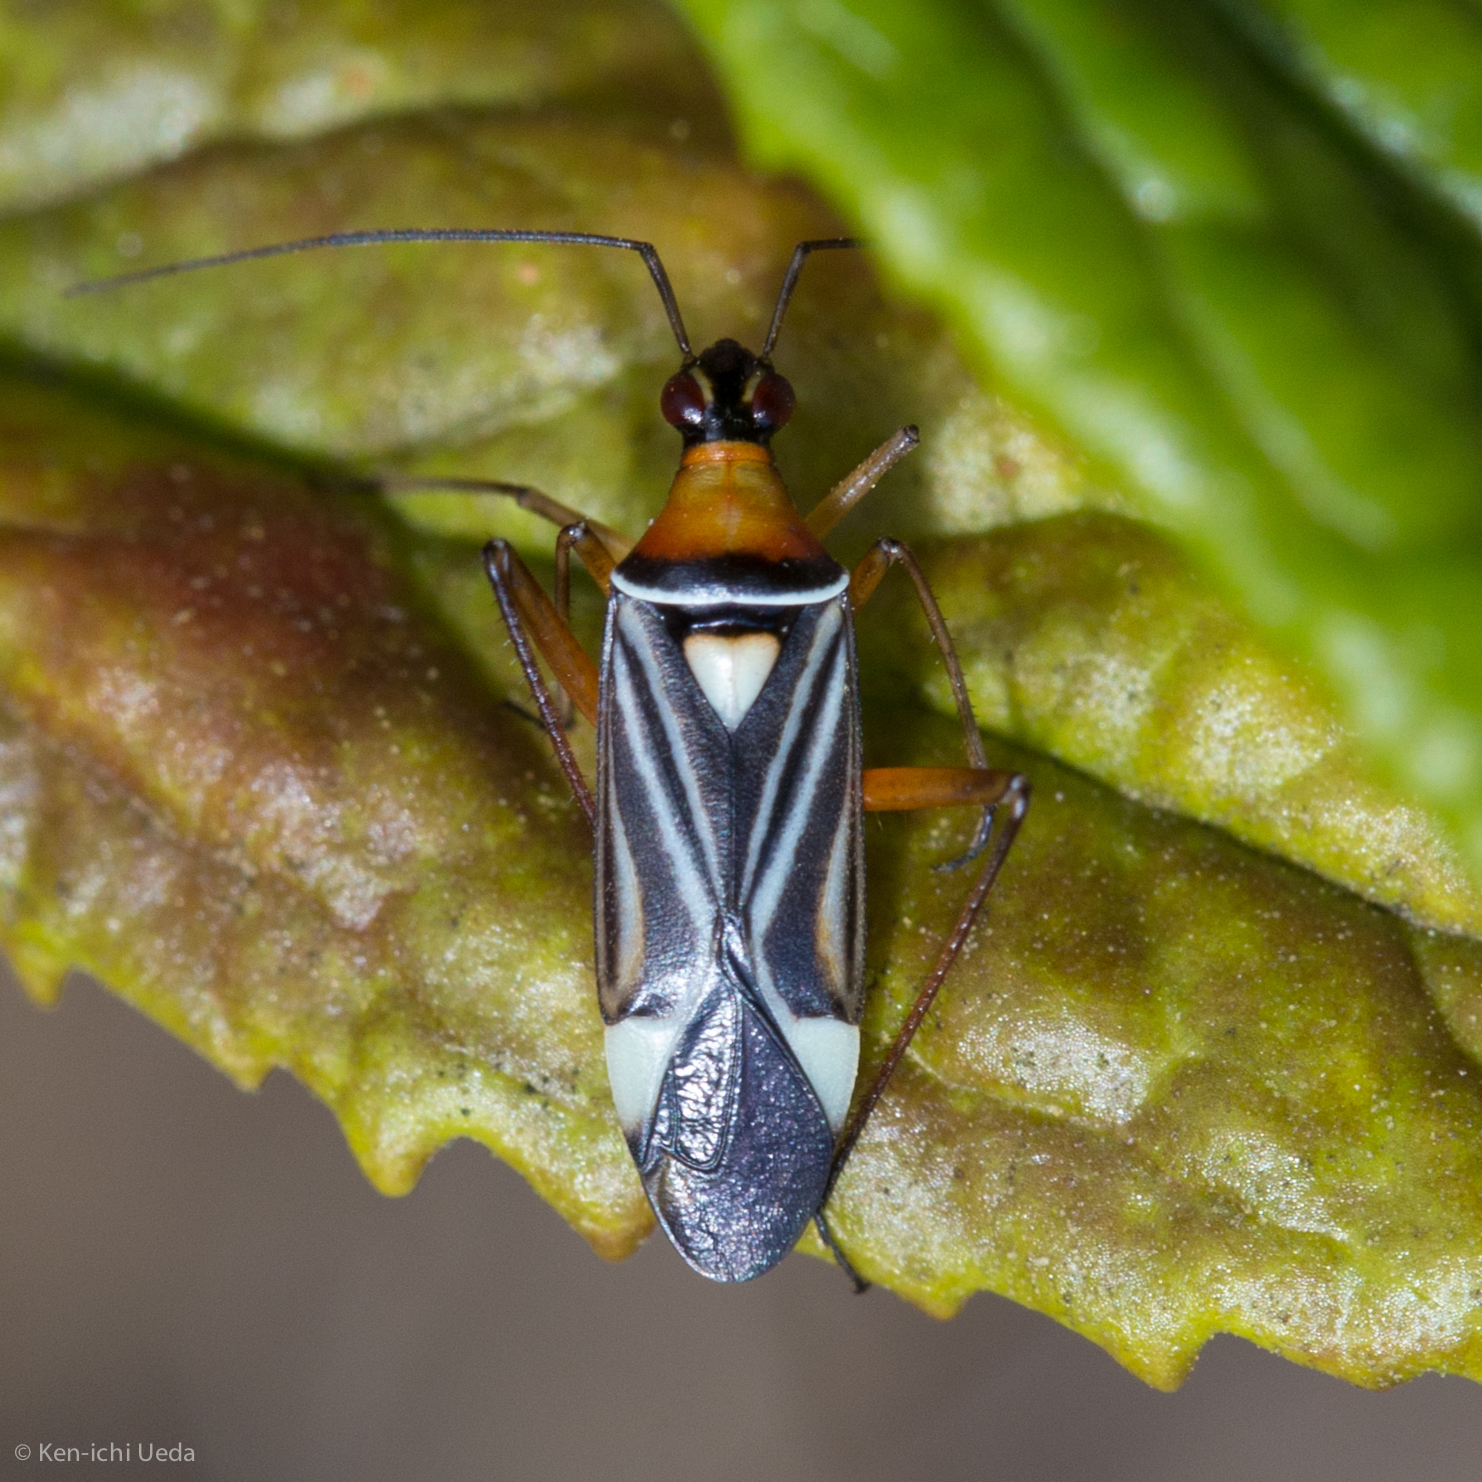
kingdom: Animalia
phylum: Arthropoda
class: Insecta
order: Hemiptera
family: Miridae
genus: Closterocoris
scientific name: Closterocoris amoenus
